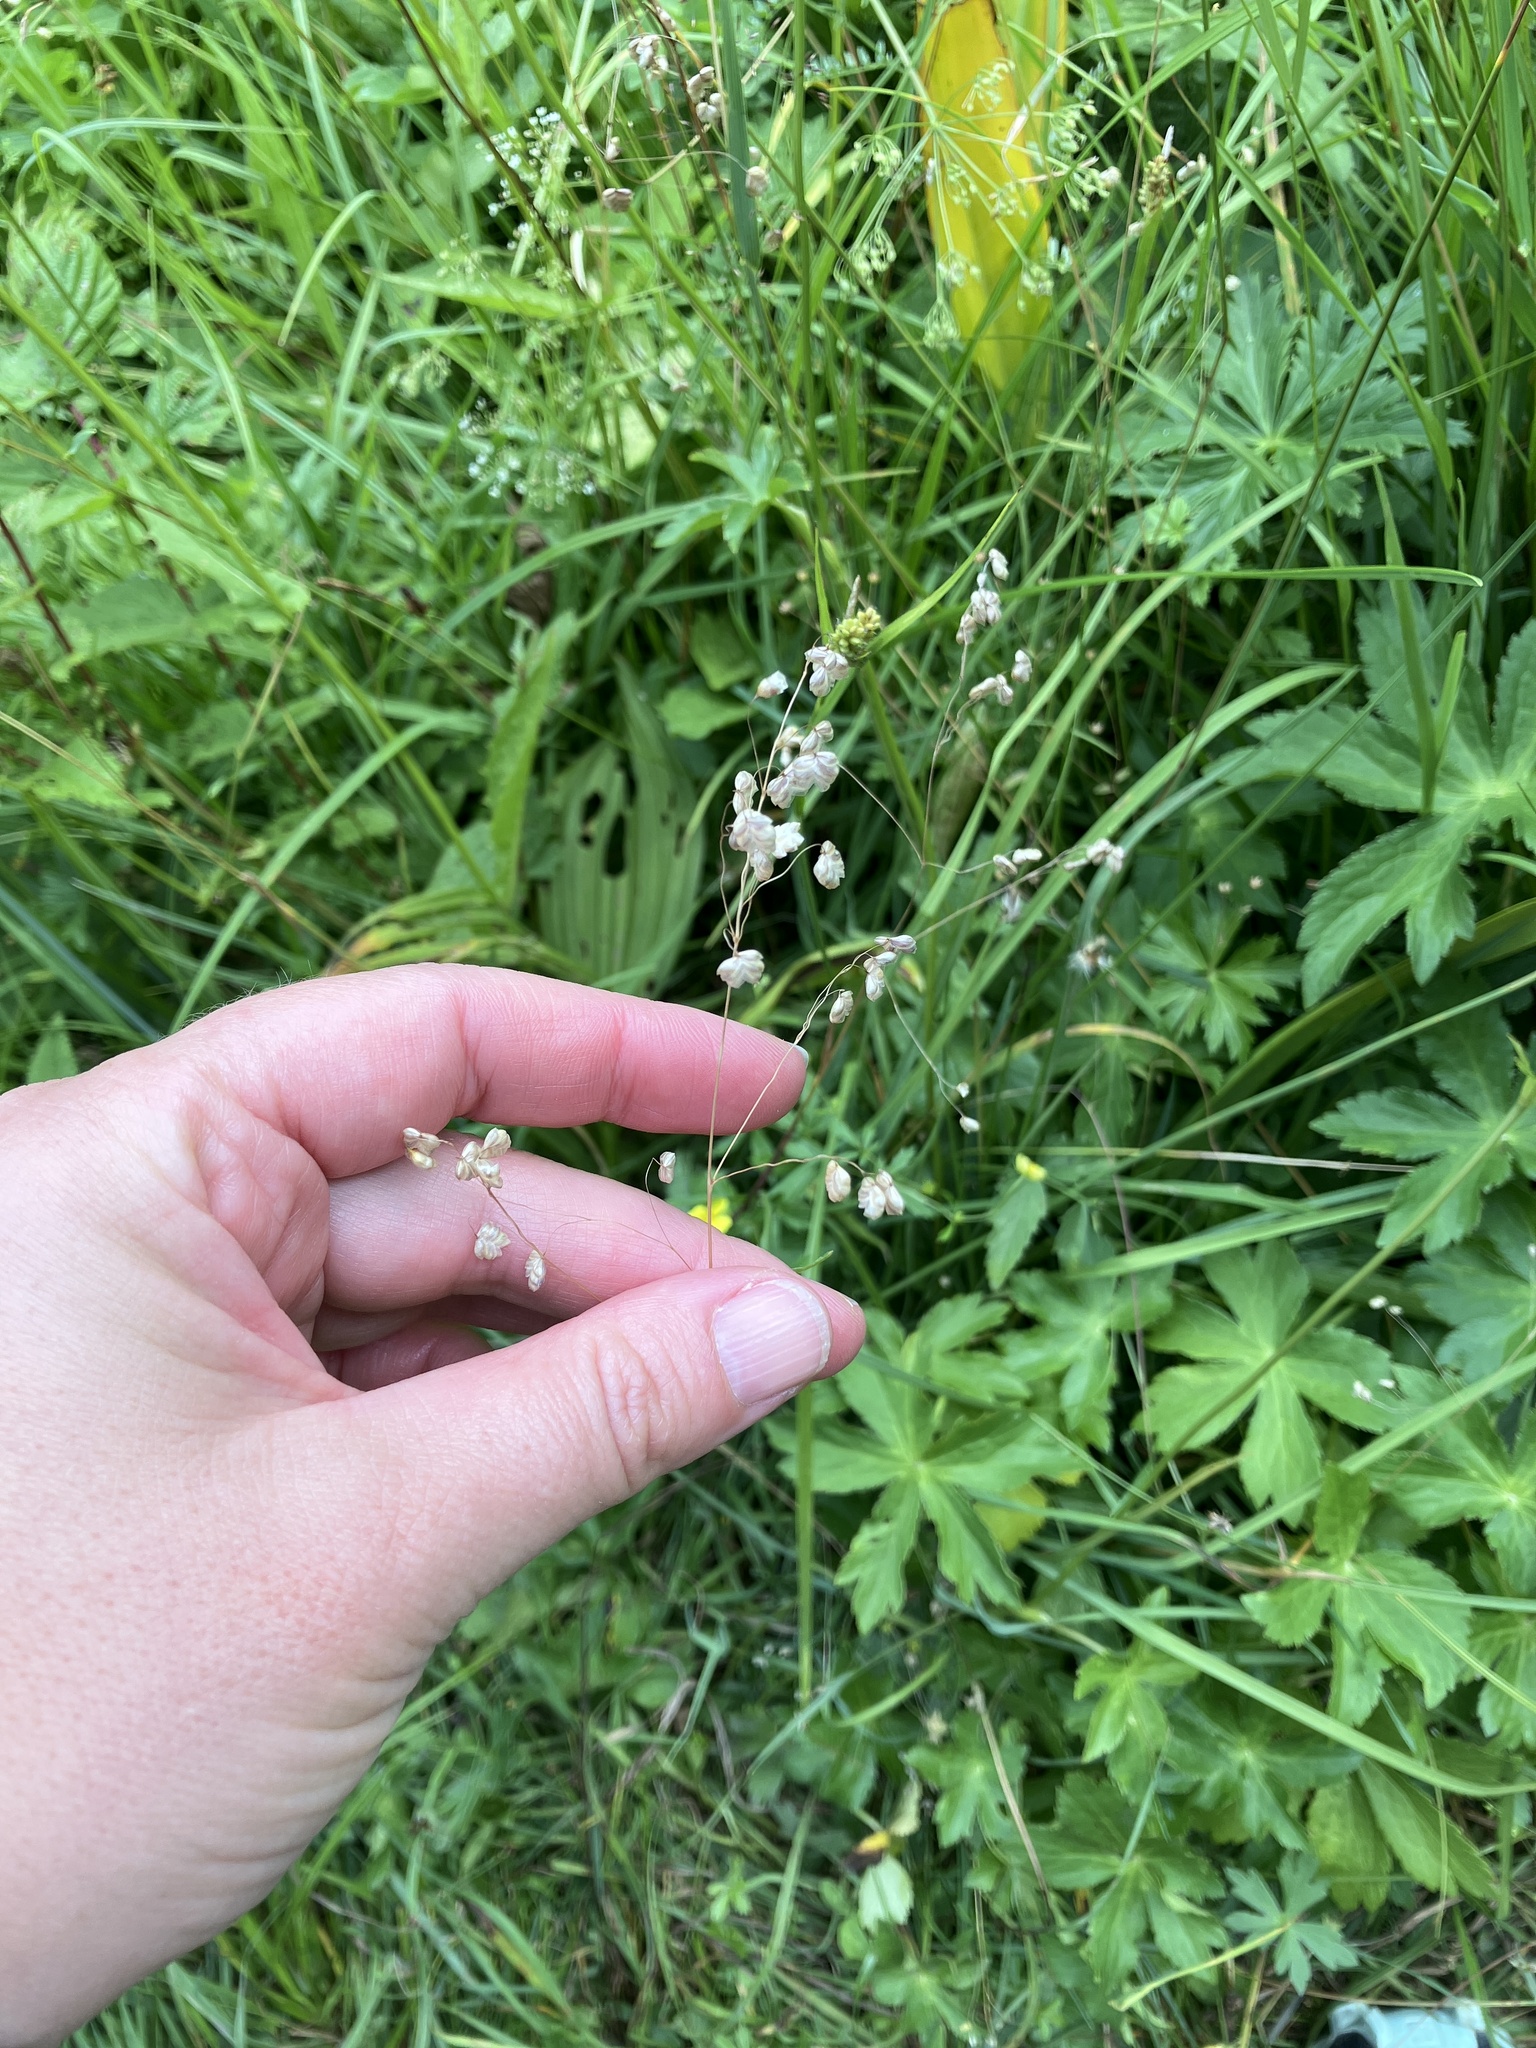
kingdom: Plantae
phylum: Tracheophyta
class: Liliopsida
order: Poales
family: Poaceae
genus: Briza
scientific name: Briza media
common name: Quaking grass
